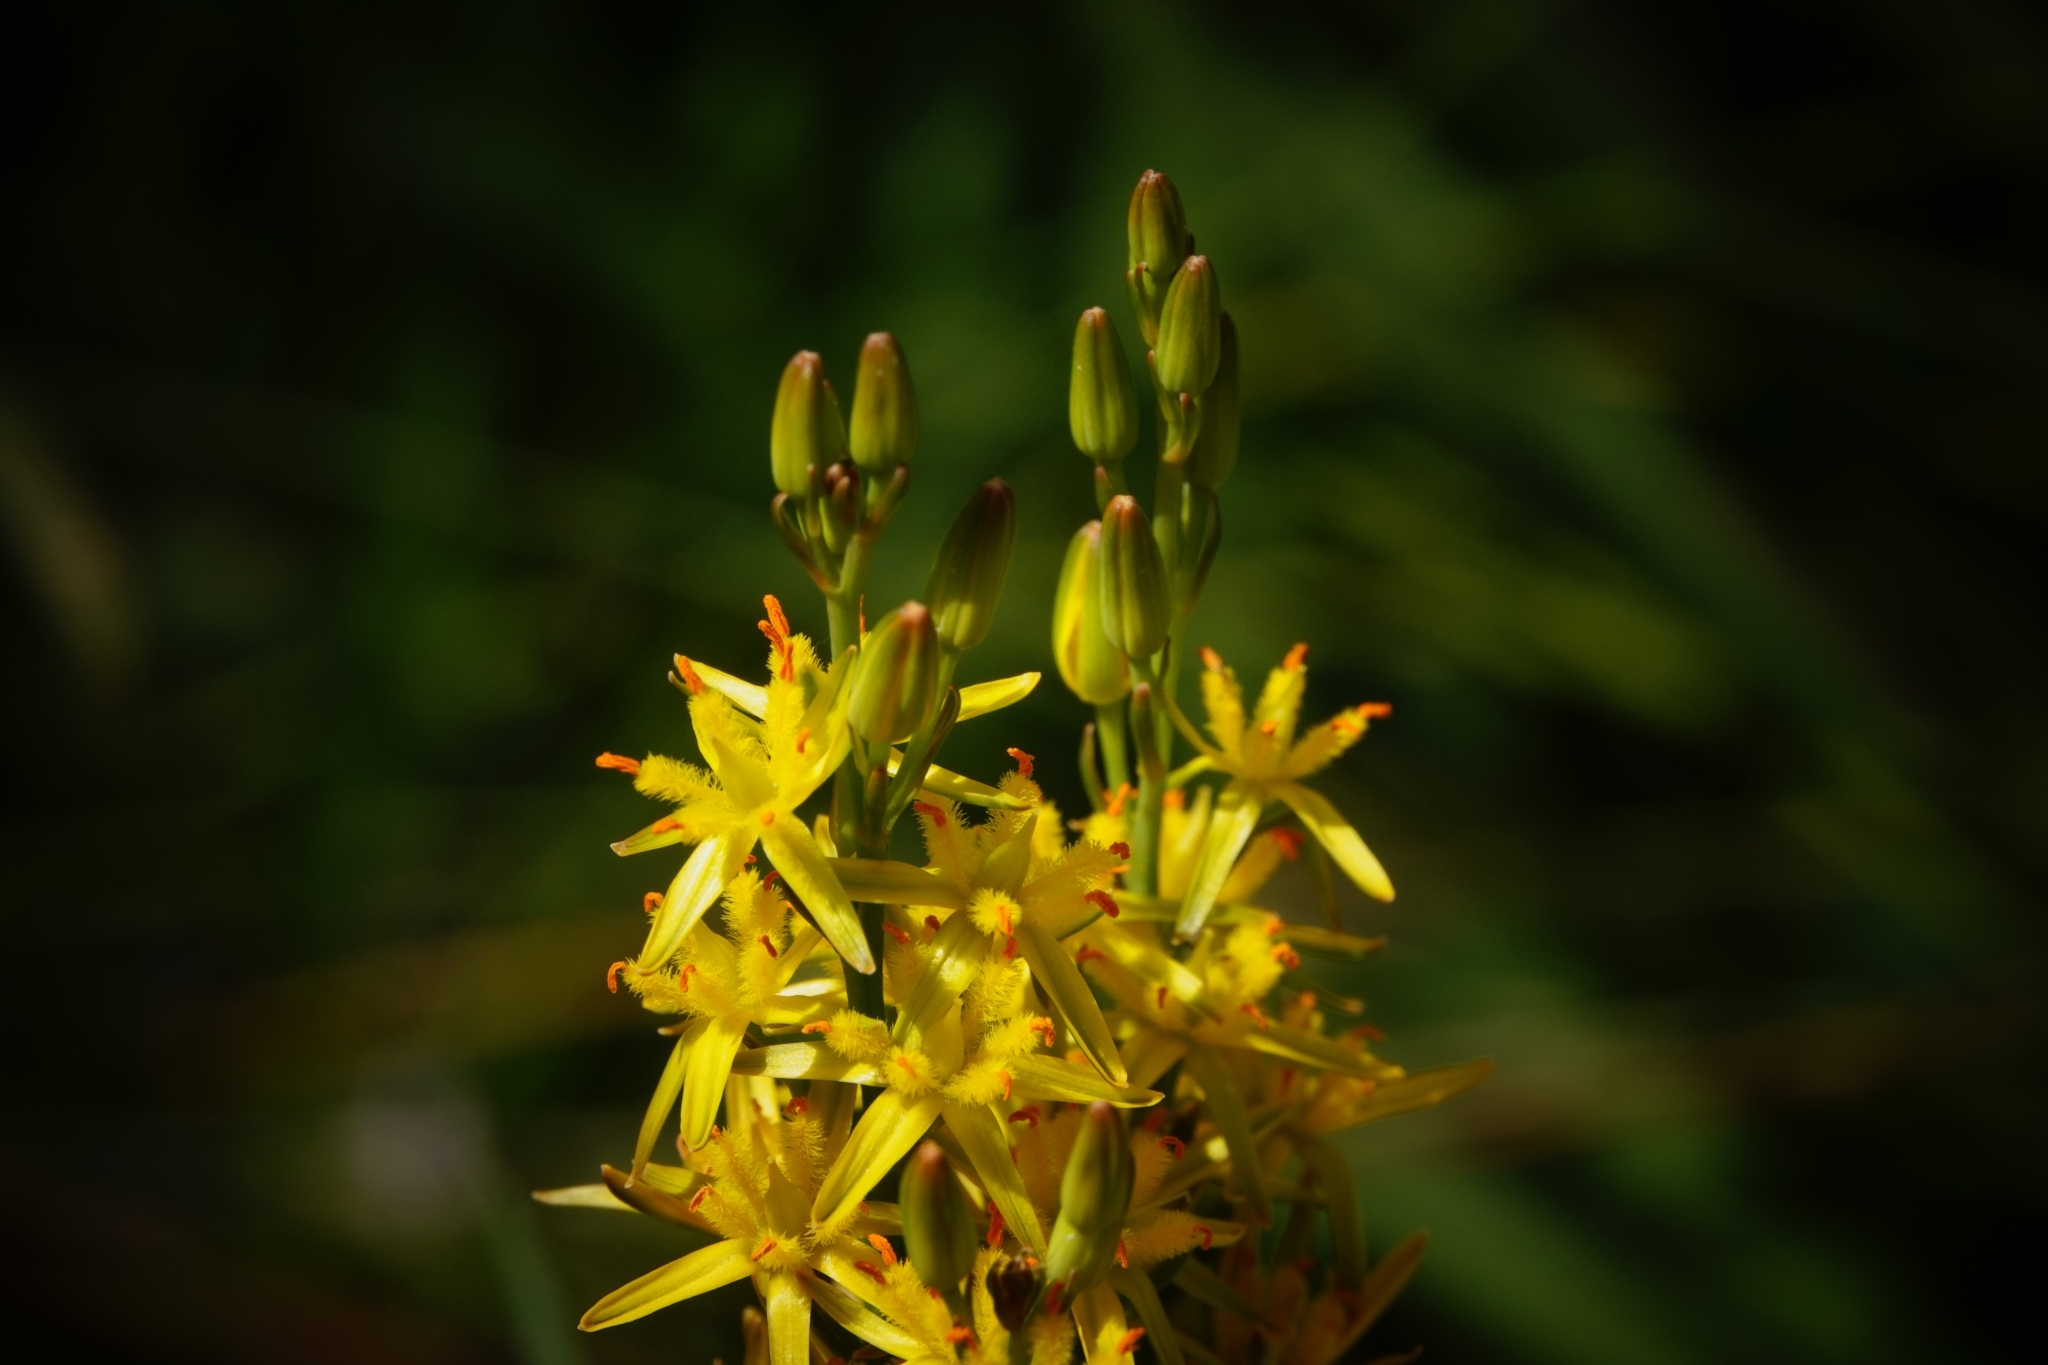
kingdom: Plantae
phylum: Tracheophyta
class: Liliopsida
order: Dioscoreales
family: Nartheciaceae
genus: Narthecium
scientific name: Narthecium ossifragum
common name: Bog asphodel
